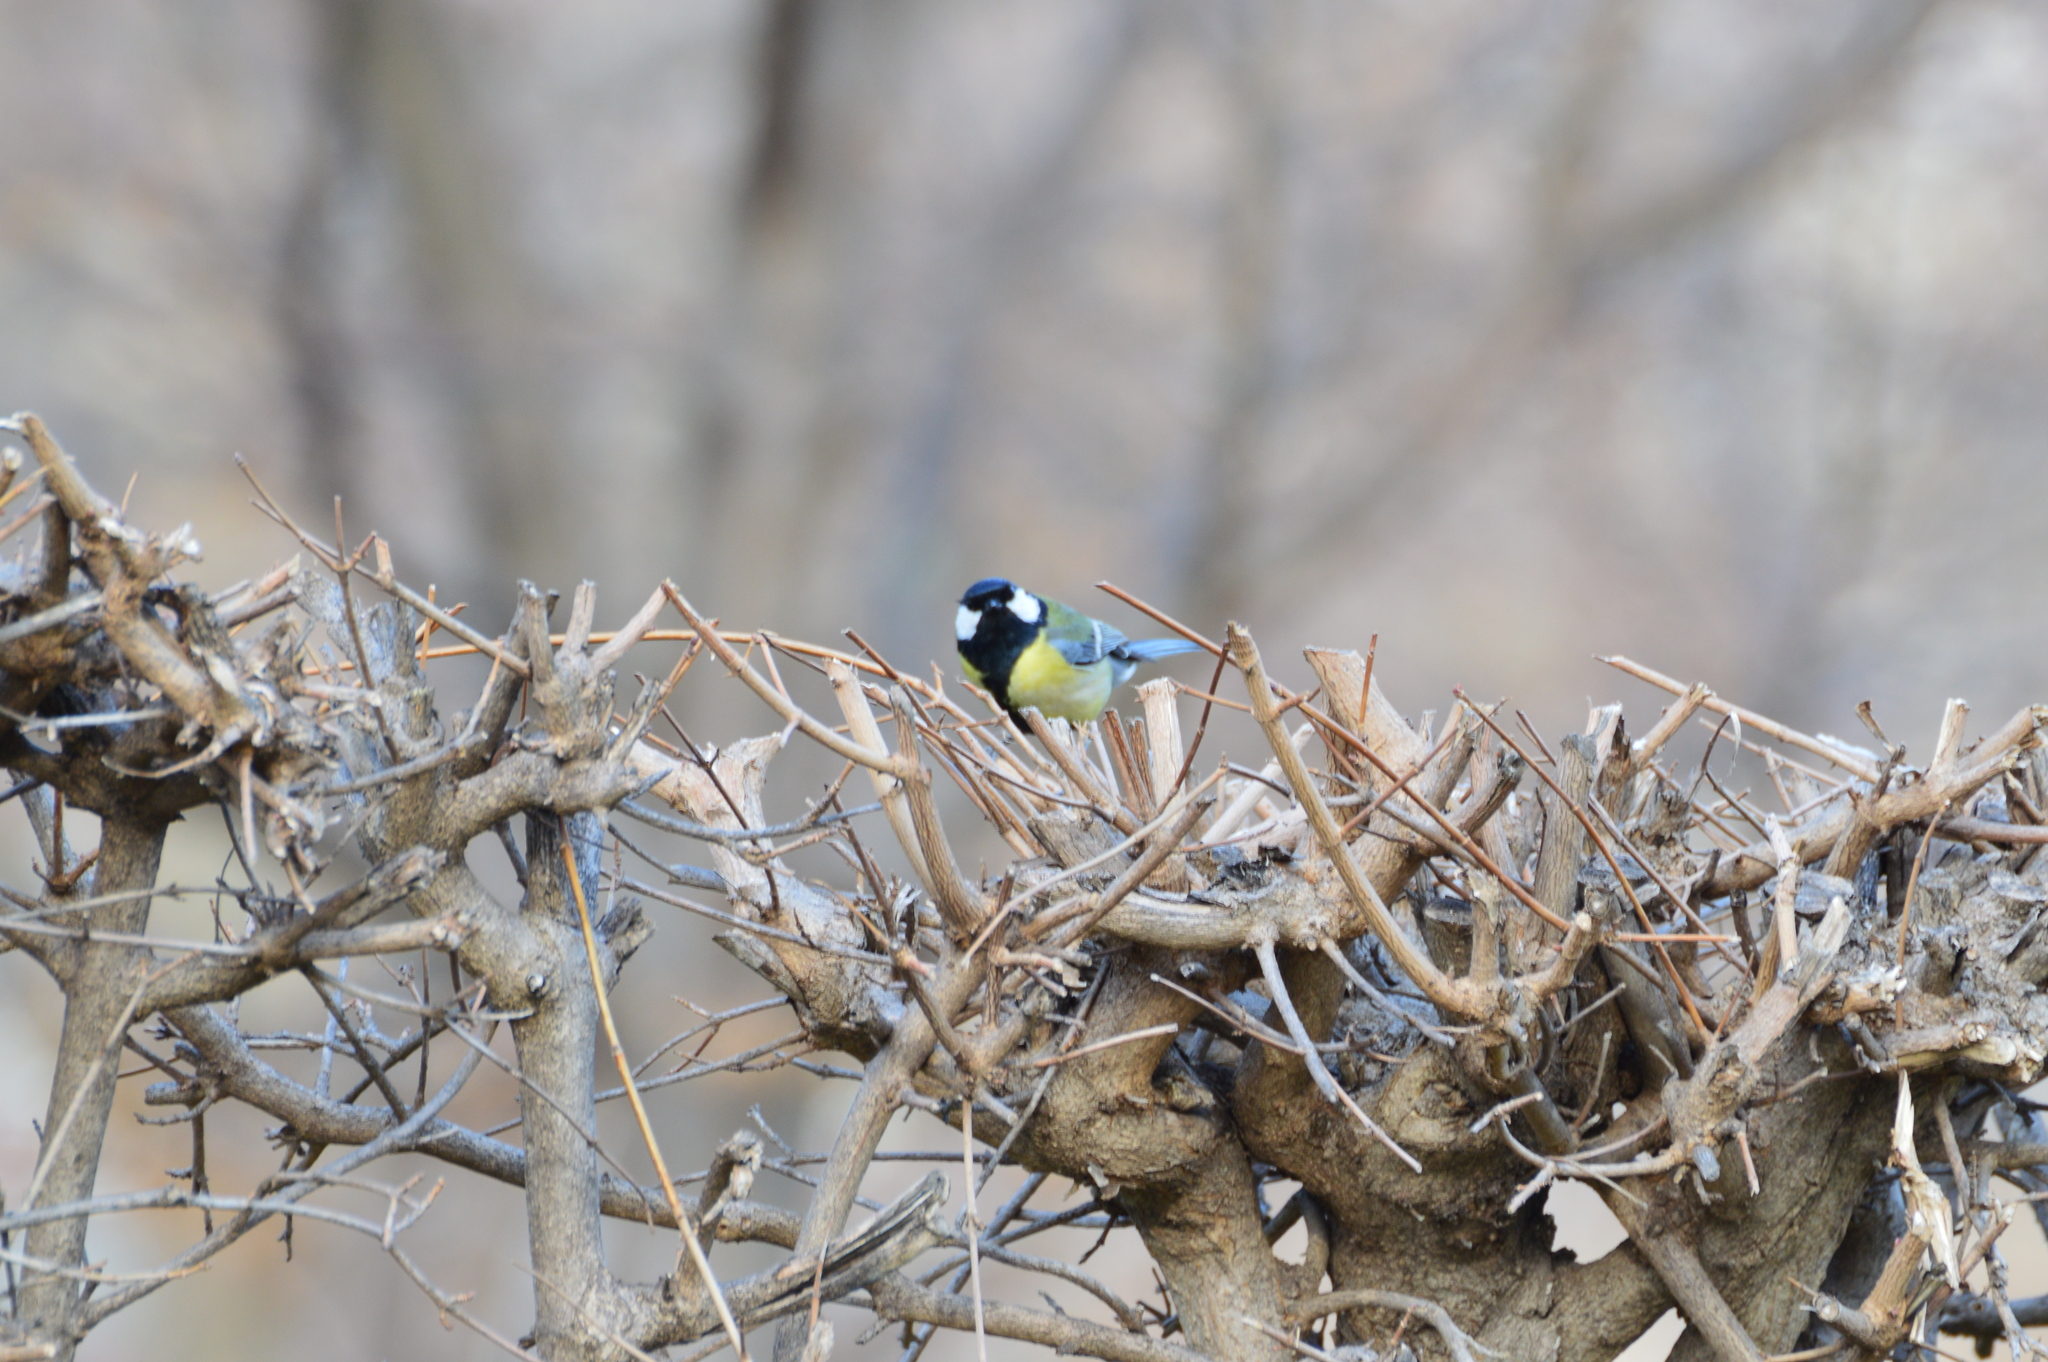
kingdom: Animalia
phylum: Chordata
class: Aves
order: Passeriformes
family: Paridae
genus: Parus
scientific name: Parus major
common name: Great tit
